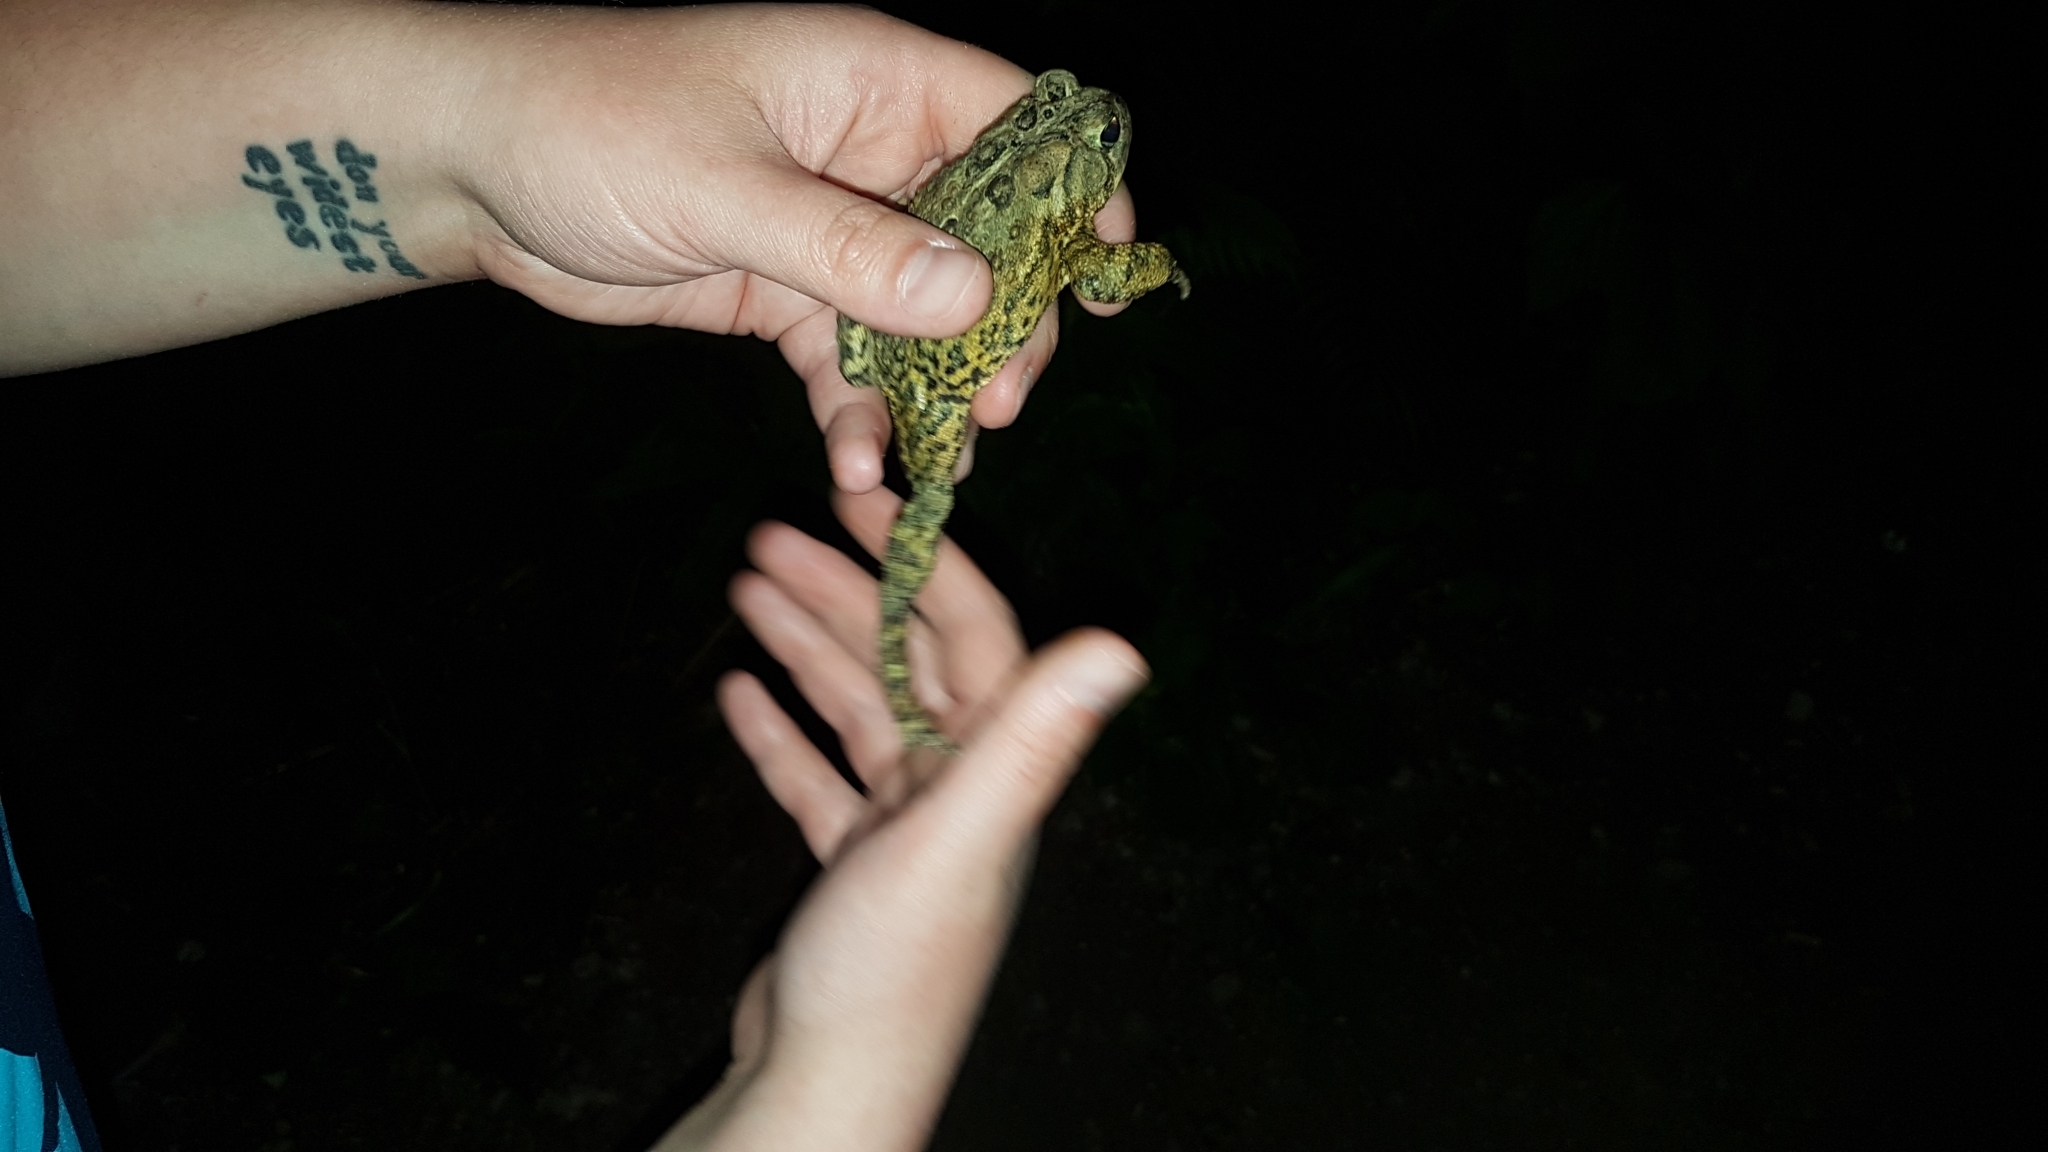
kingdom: Animalia
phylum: Chordata
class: Amphibia
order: Anura
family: Bufonidae
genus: Anaxyrus
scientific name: Anaxyrus americanus
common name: American toad
